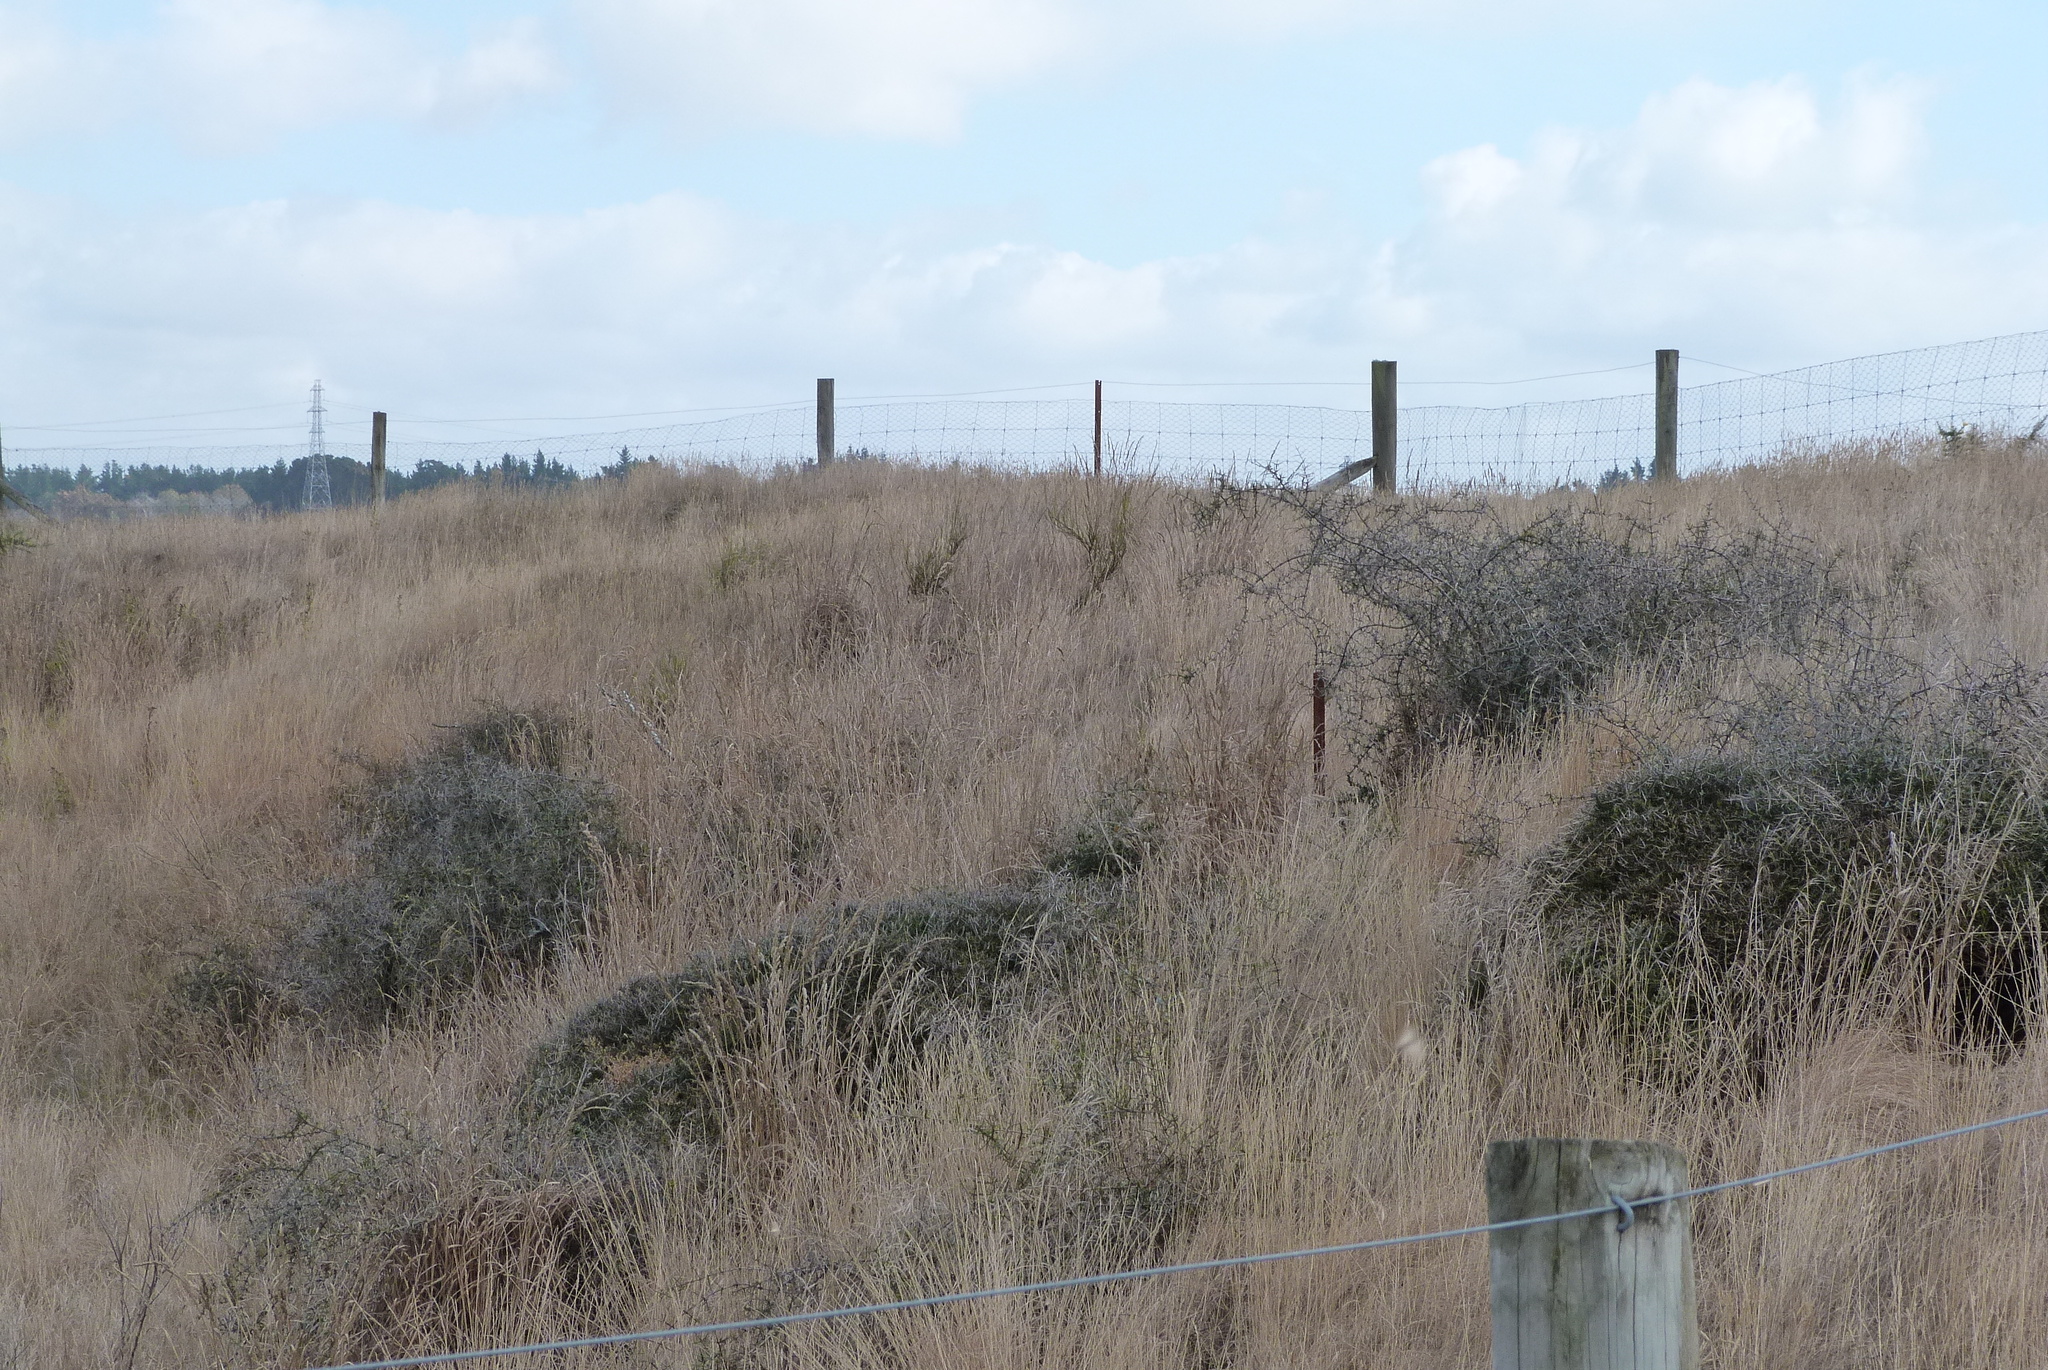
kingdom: Plantae
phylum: Tracheophyta
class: Magnoliopsida
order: Rosales
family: Rhamnaceae
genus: Discaria
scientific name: Discaria toumatou
